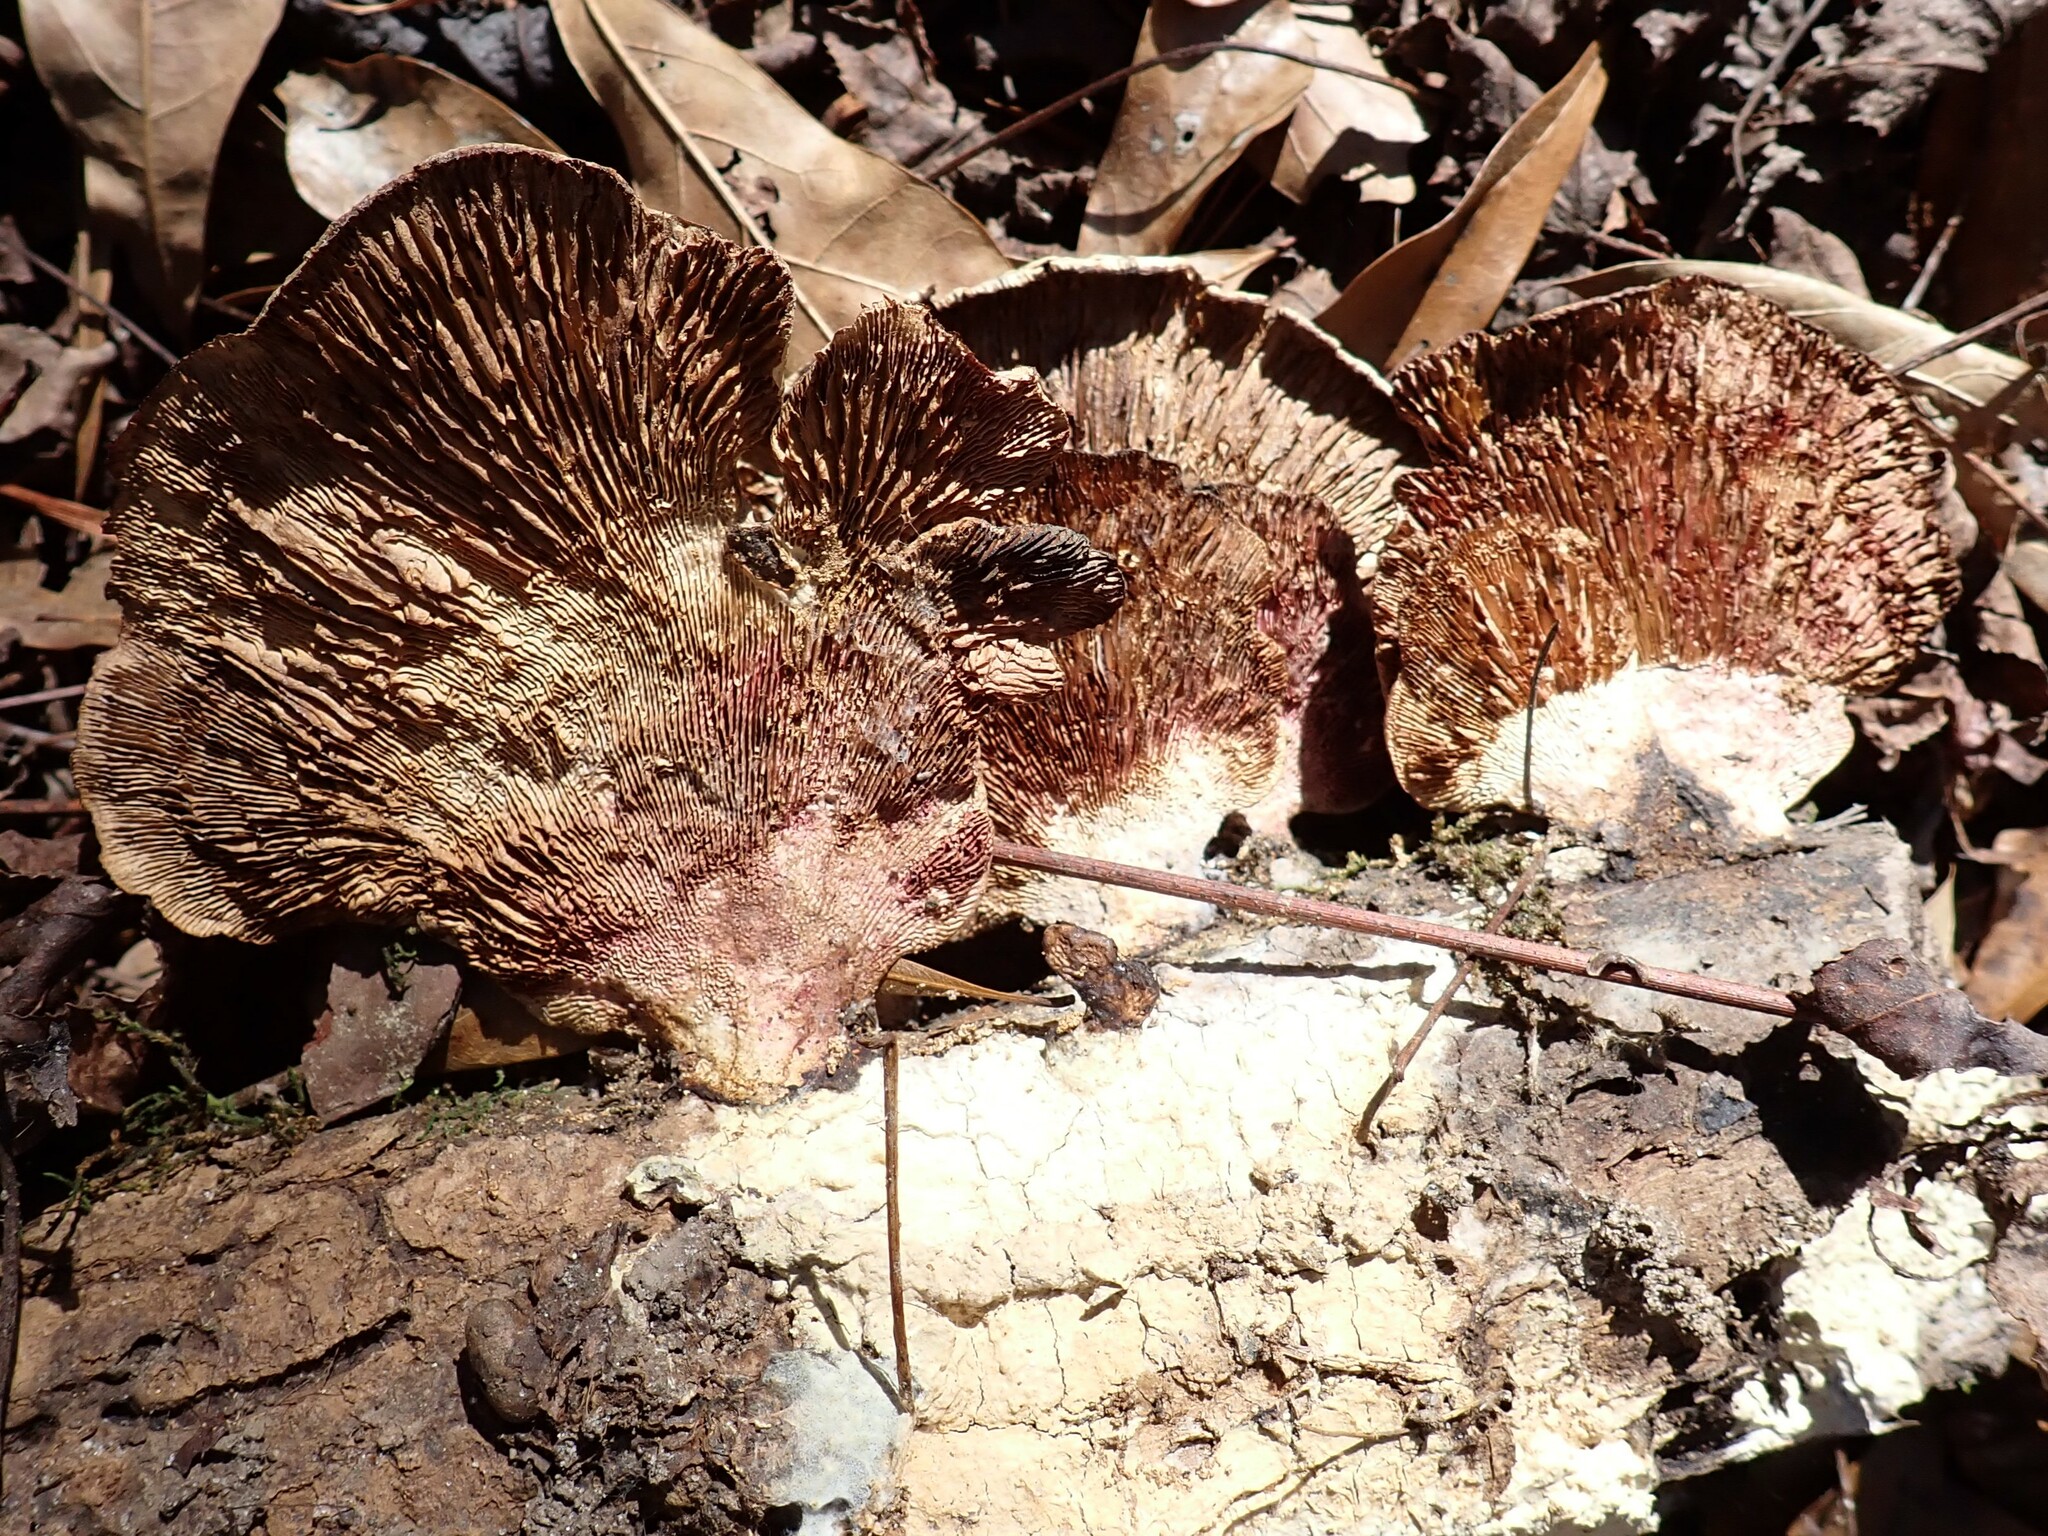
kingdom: Fungi
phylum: Basidiomycota
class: Agaricomycetes
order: Polyporales
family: Polyporaceae
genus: Daedaleopsis
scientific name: Daedaleopsis confragosa
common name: Blushing bracket
